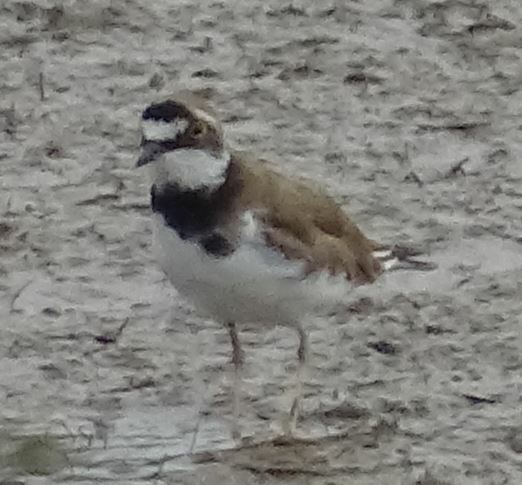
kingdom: Animalia
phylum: Chordata
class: Aves
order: Charadriiformes
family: Charadriidae
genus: Charadrius
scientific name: Charadrius dubius
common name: Little ringed plover
